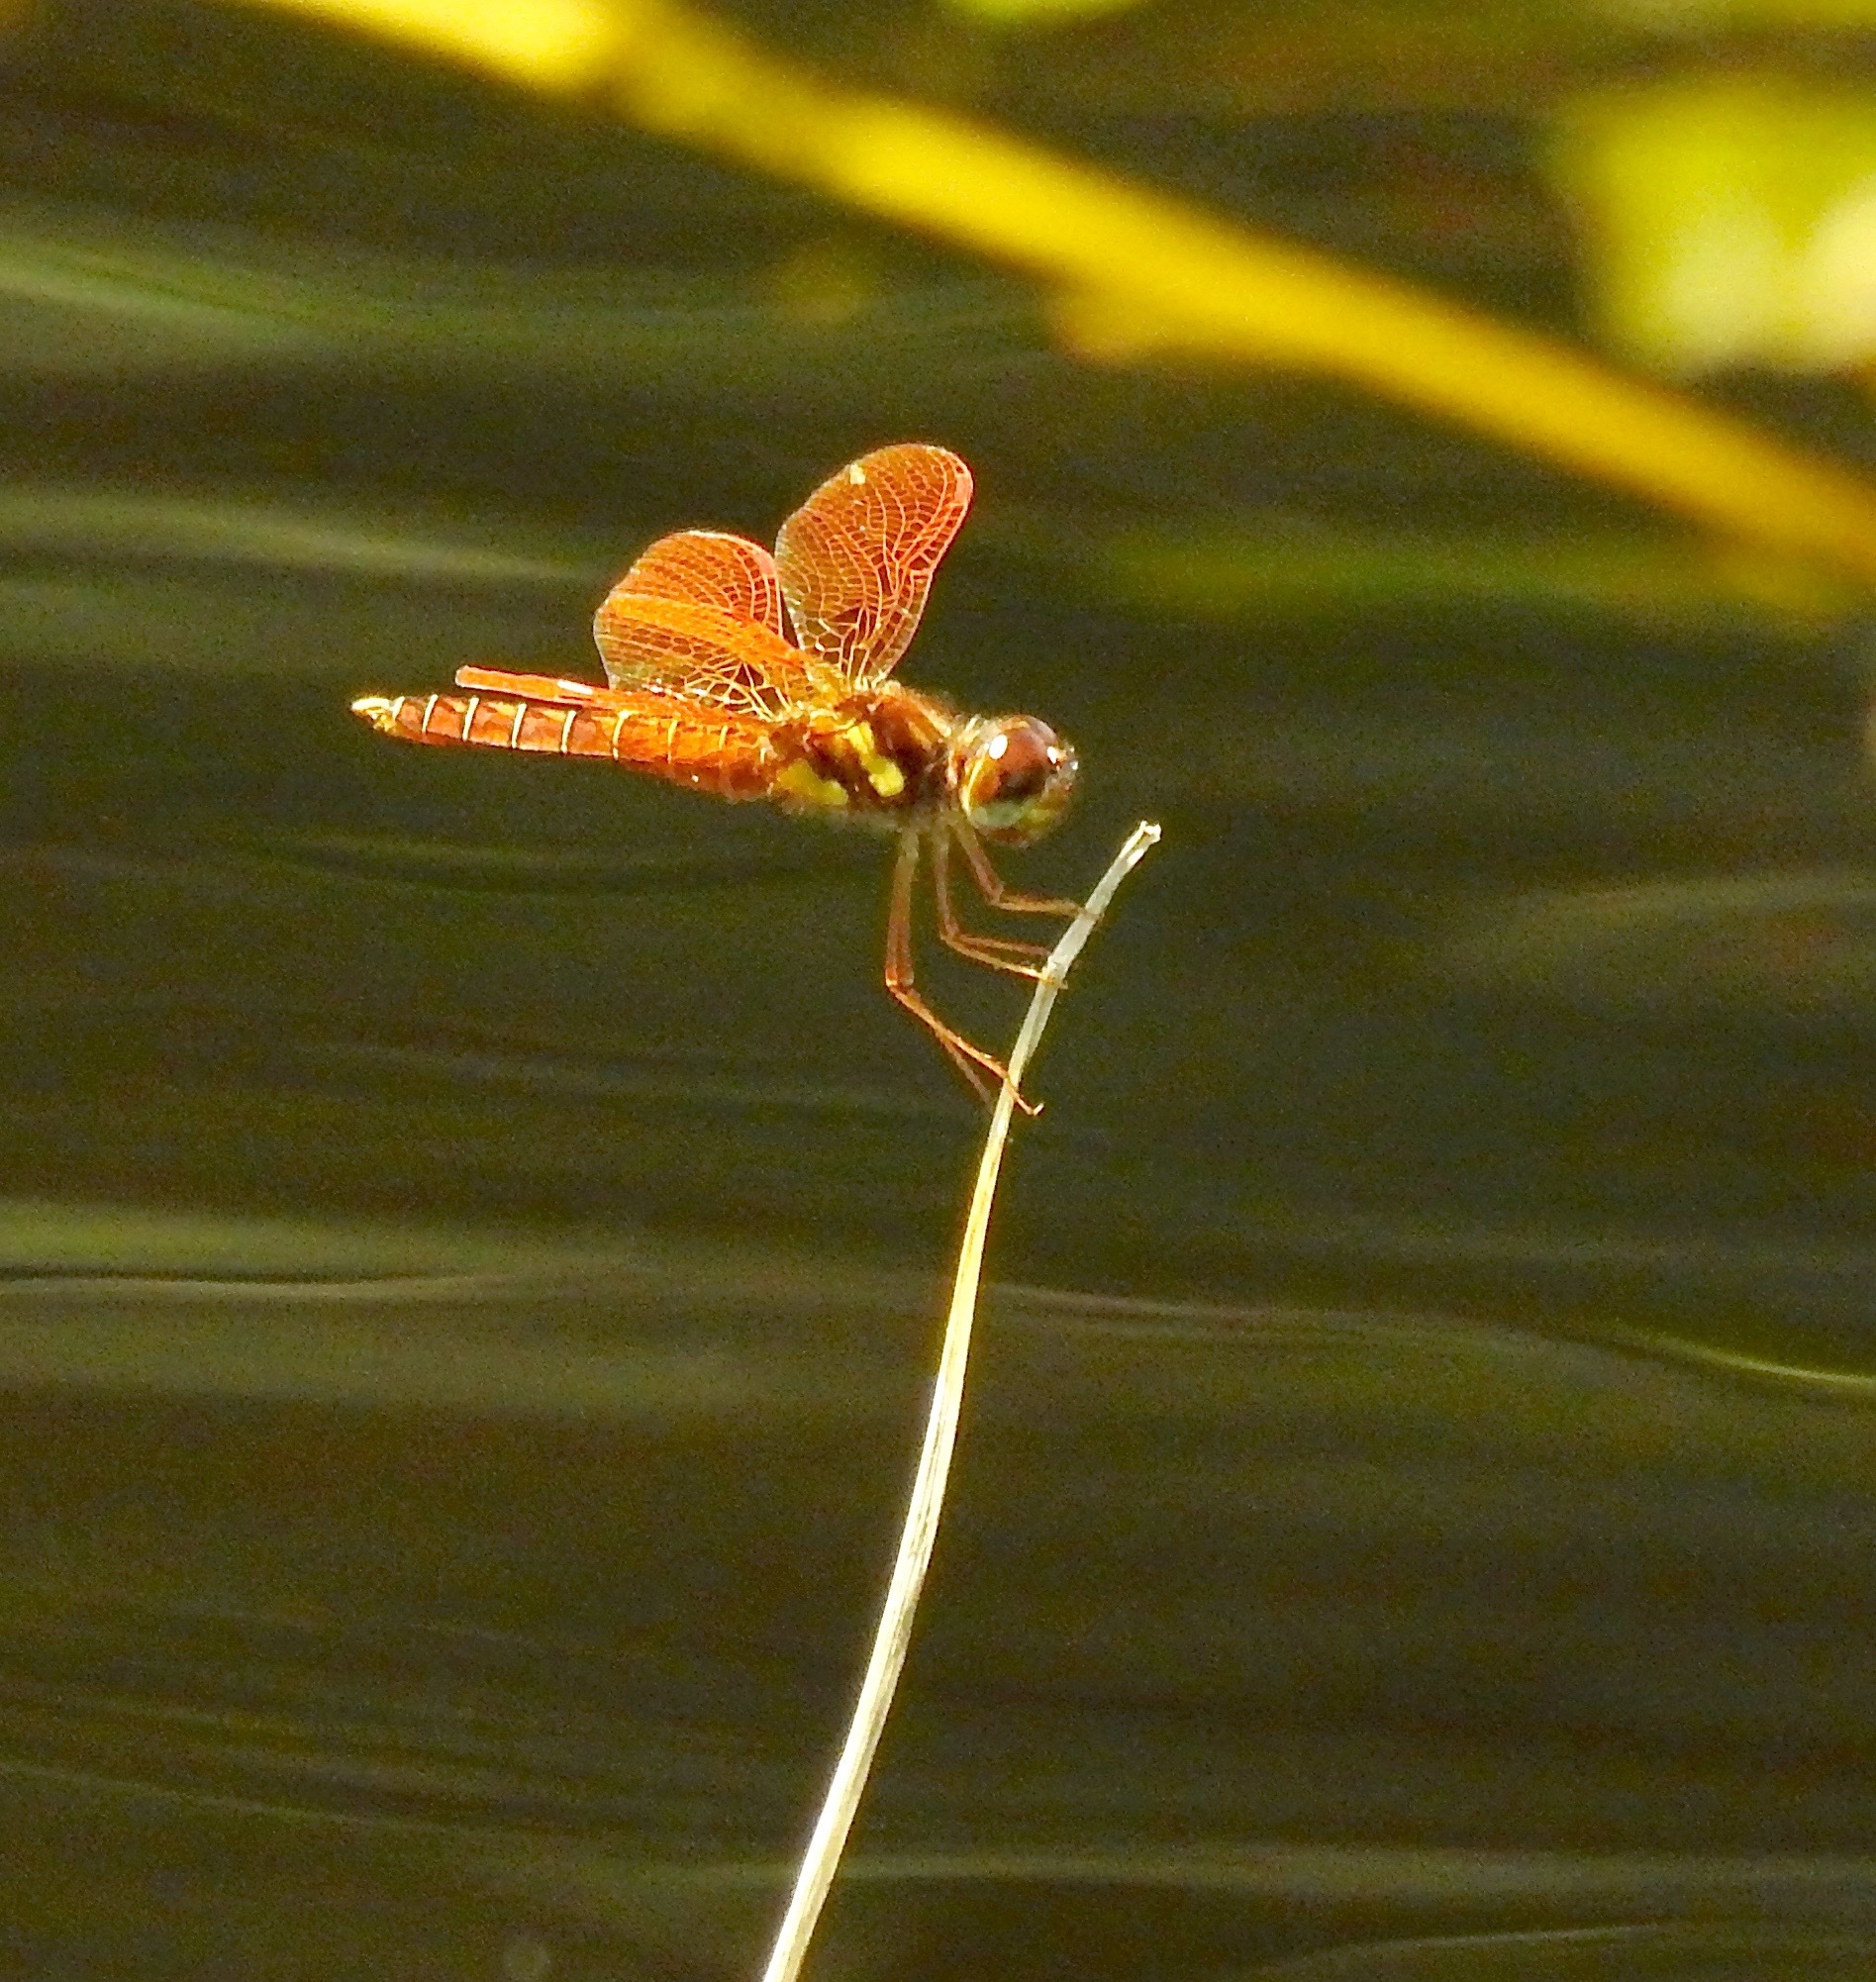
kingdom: Animalia
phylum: Arthropoda
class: Insecta
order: Odonata
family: Libellulidae
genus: Perithemis
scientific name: Perithemis tenera
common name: Eastern amberwing
